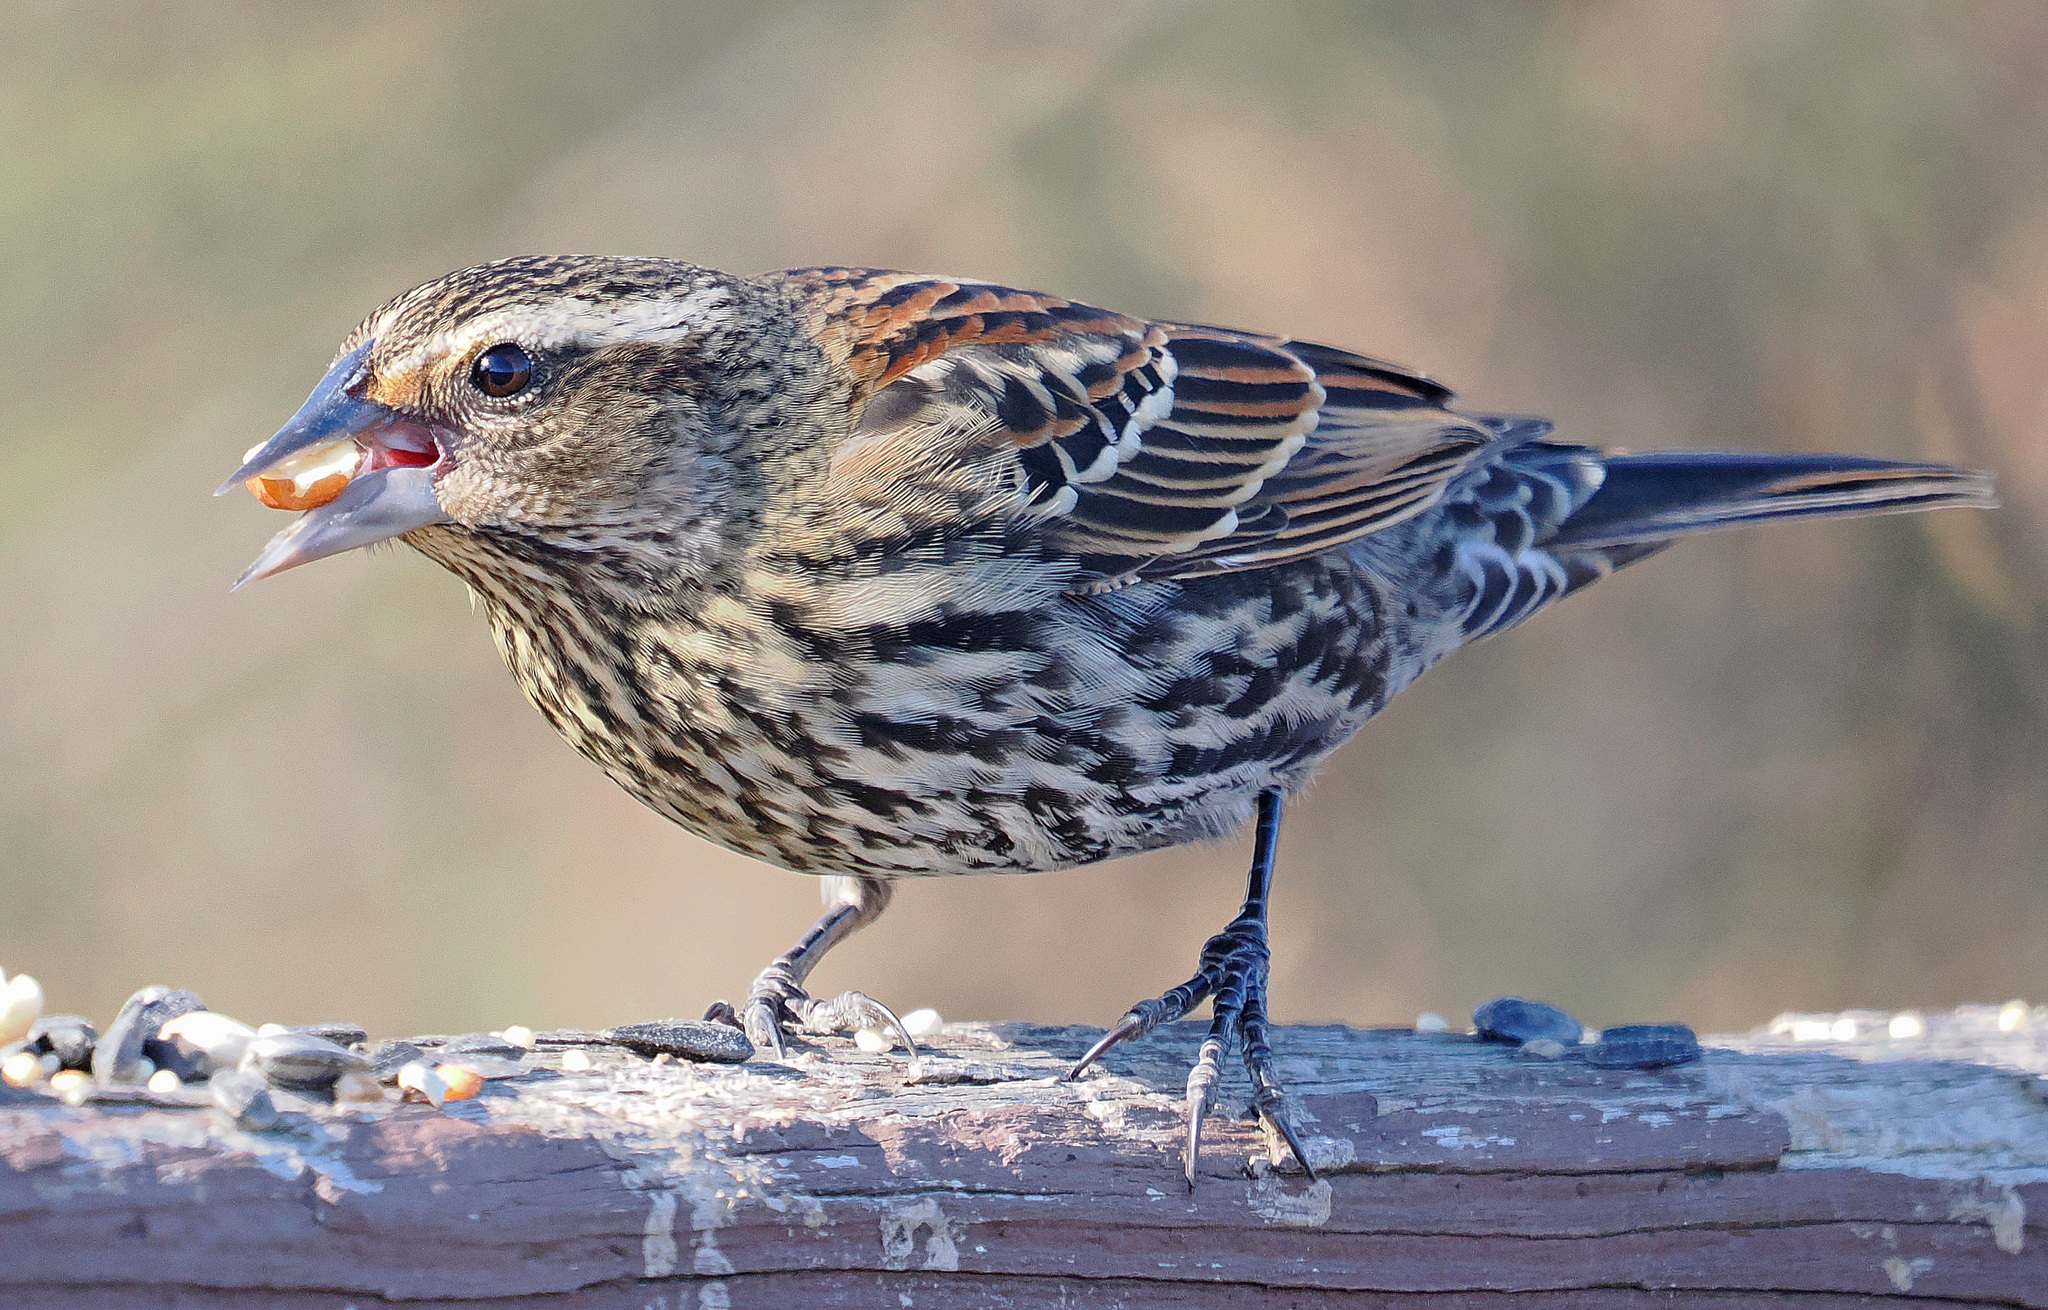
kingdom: Animalia
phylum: Chordata
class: Aves
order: Passeriformes
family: Icteridae
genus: Agelaius
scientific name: Agelaius phoeniceus
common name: Red-winged blackbird
